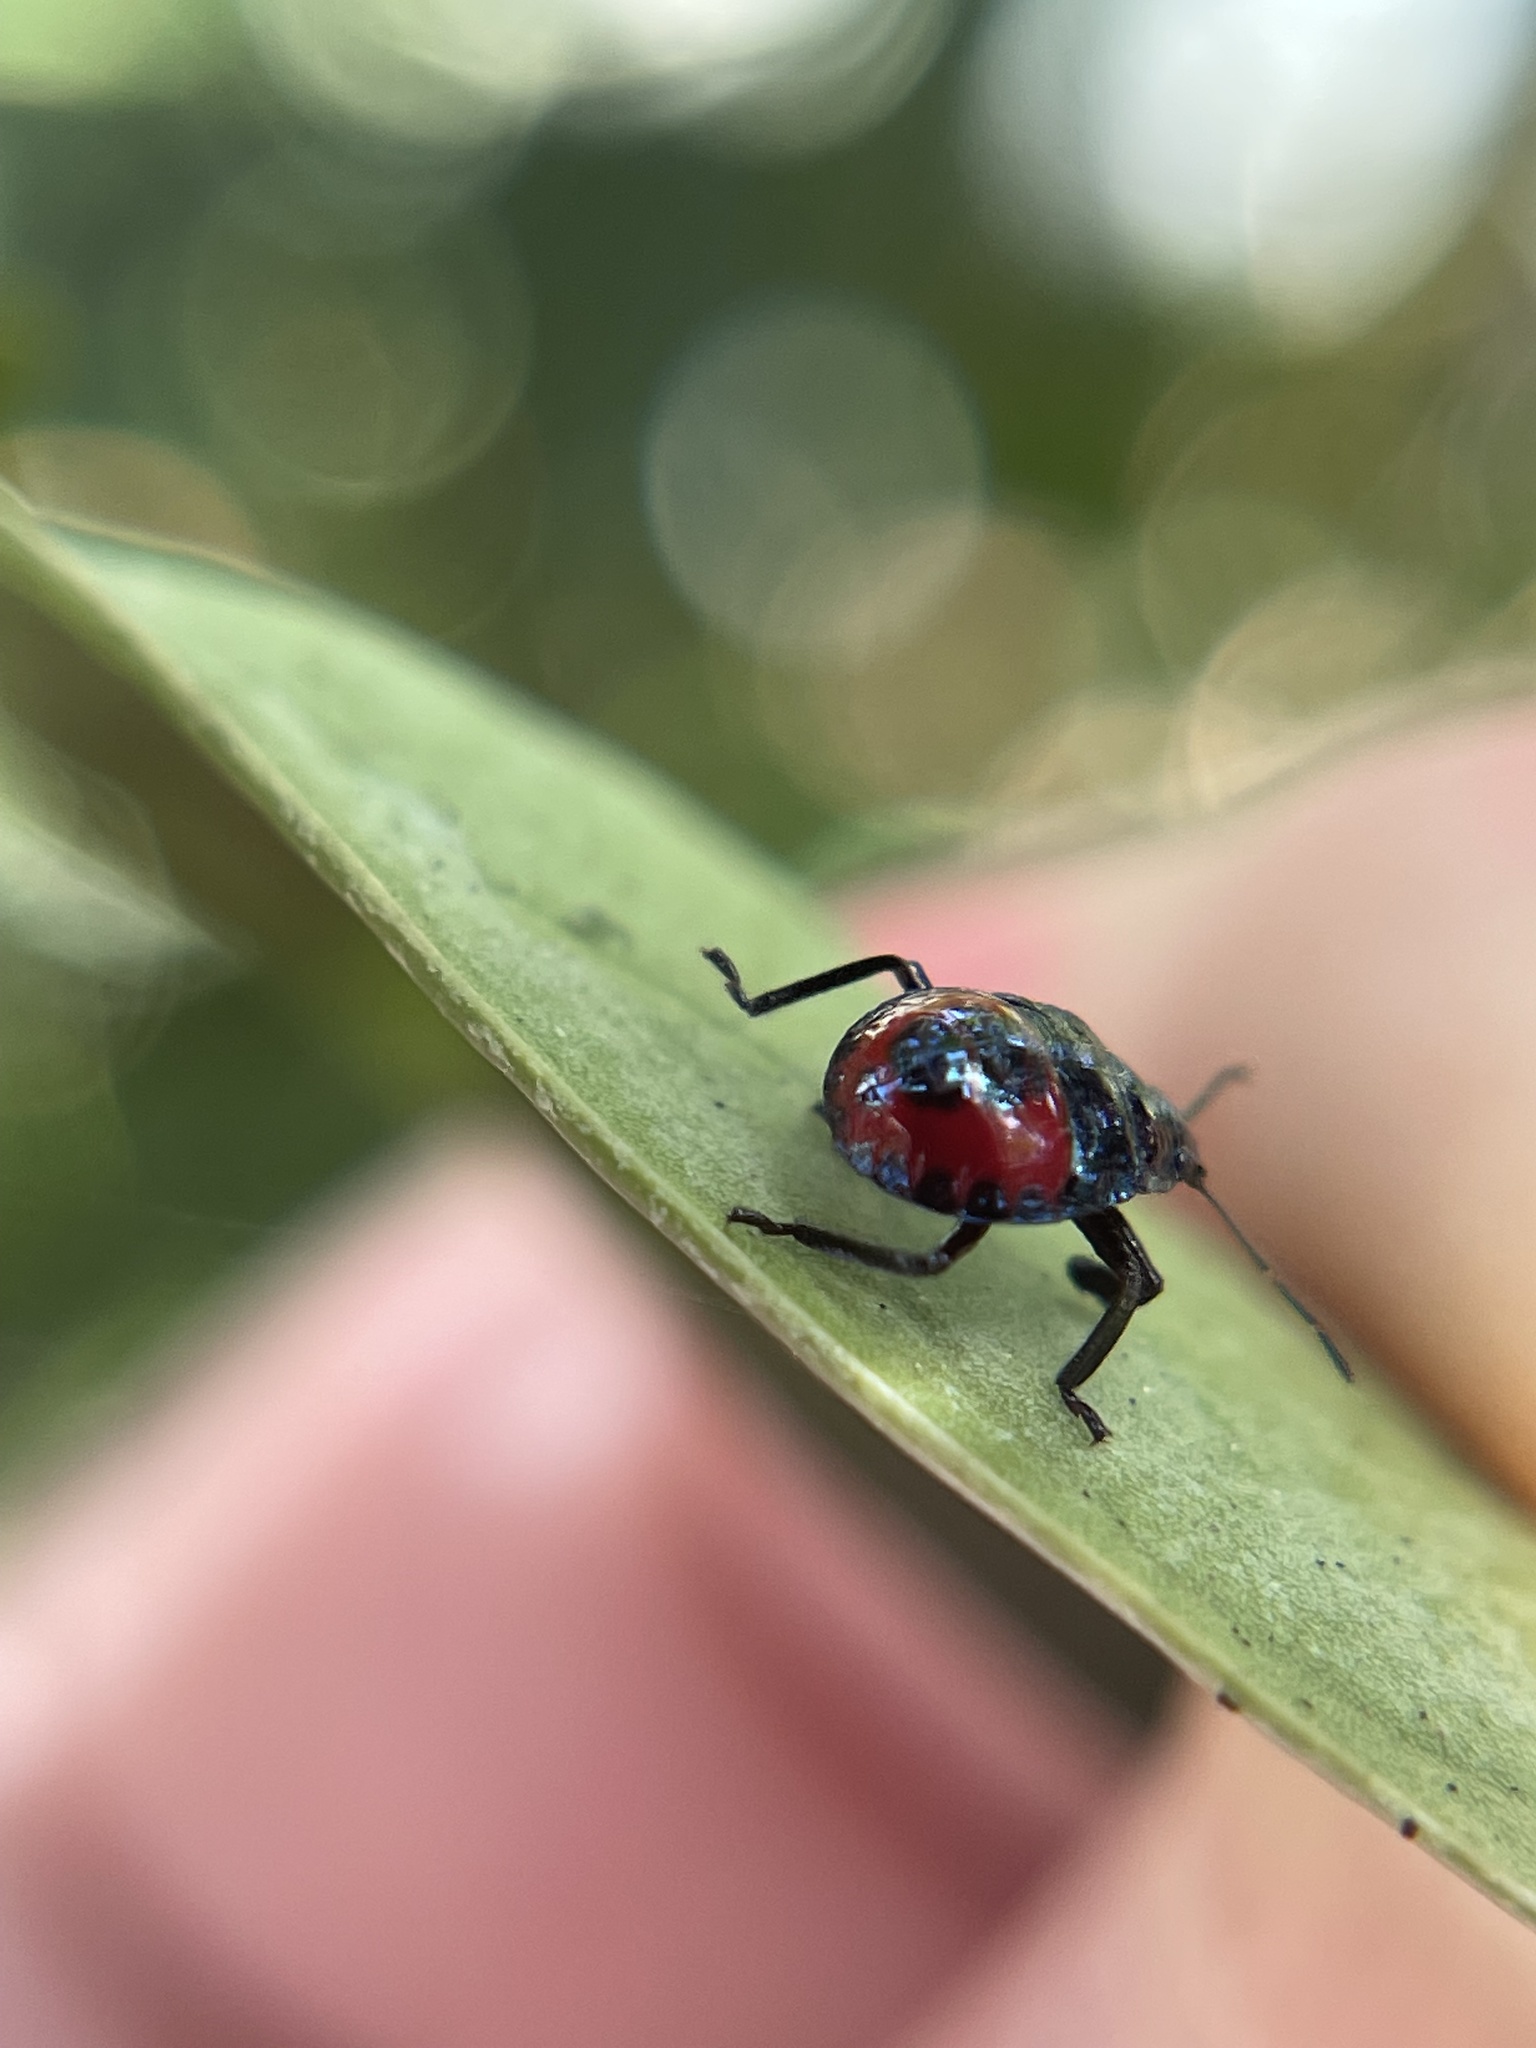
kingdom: Animalia
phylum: Arthropoda
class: Insecta
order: Hemiptera
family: Pentatomidae
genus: Euthyrhynchus
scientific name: Euthyrhynchus floridanus
